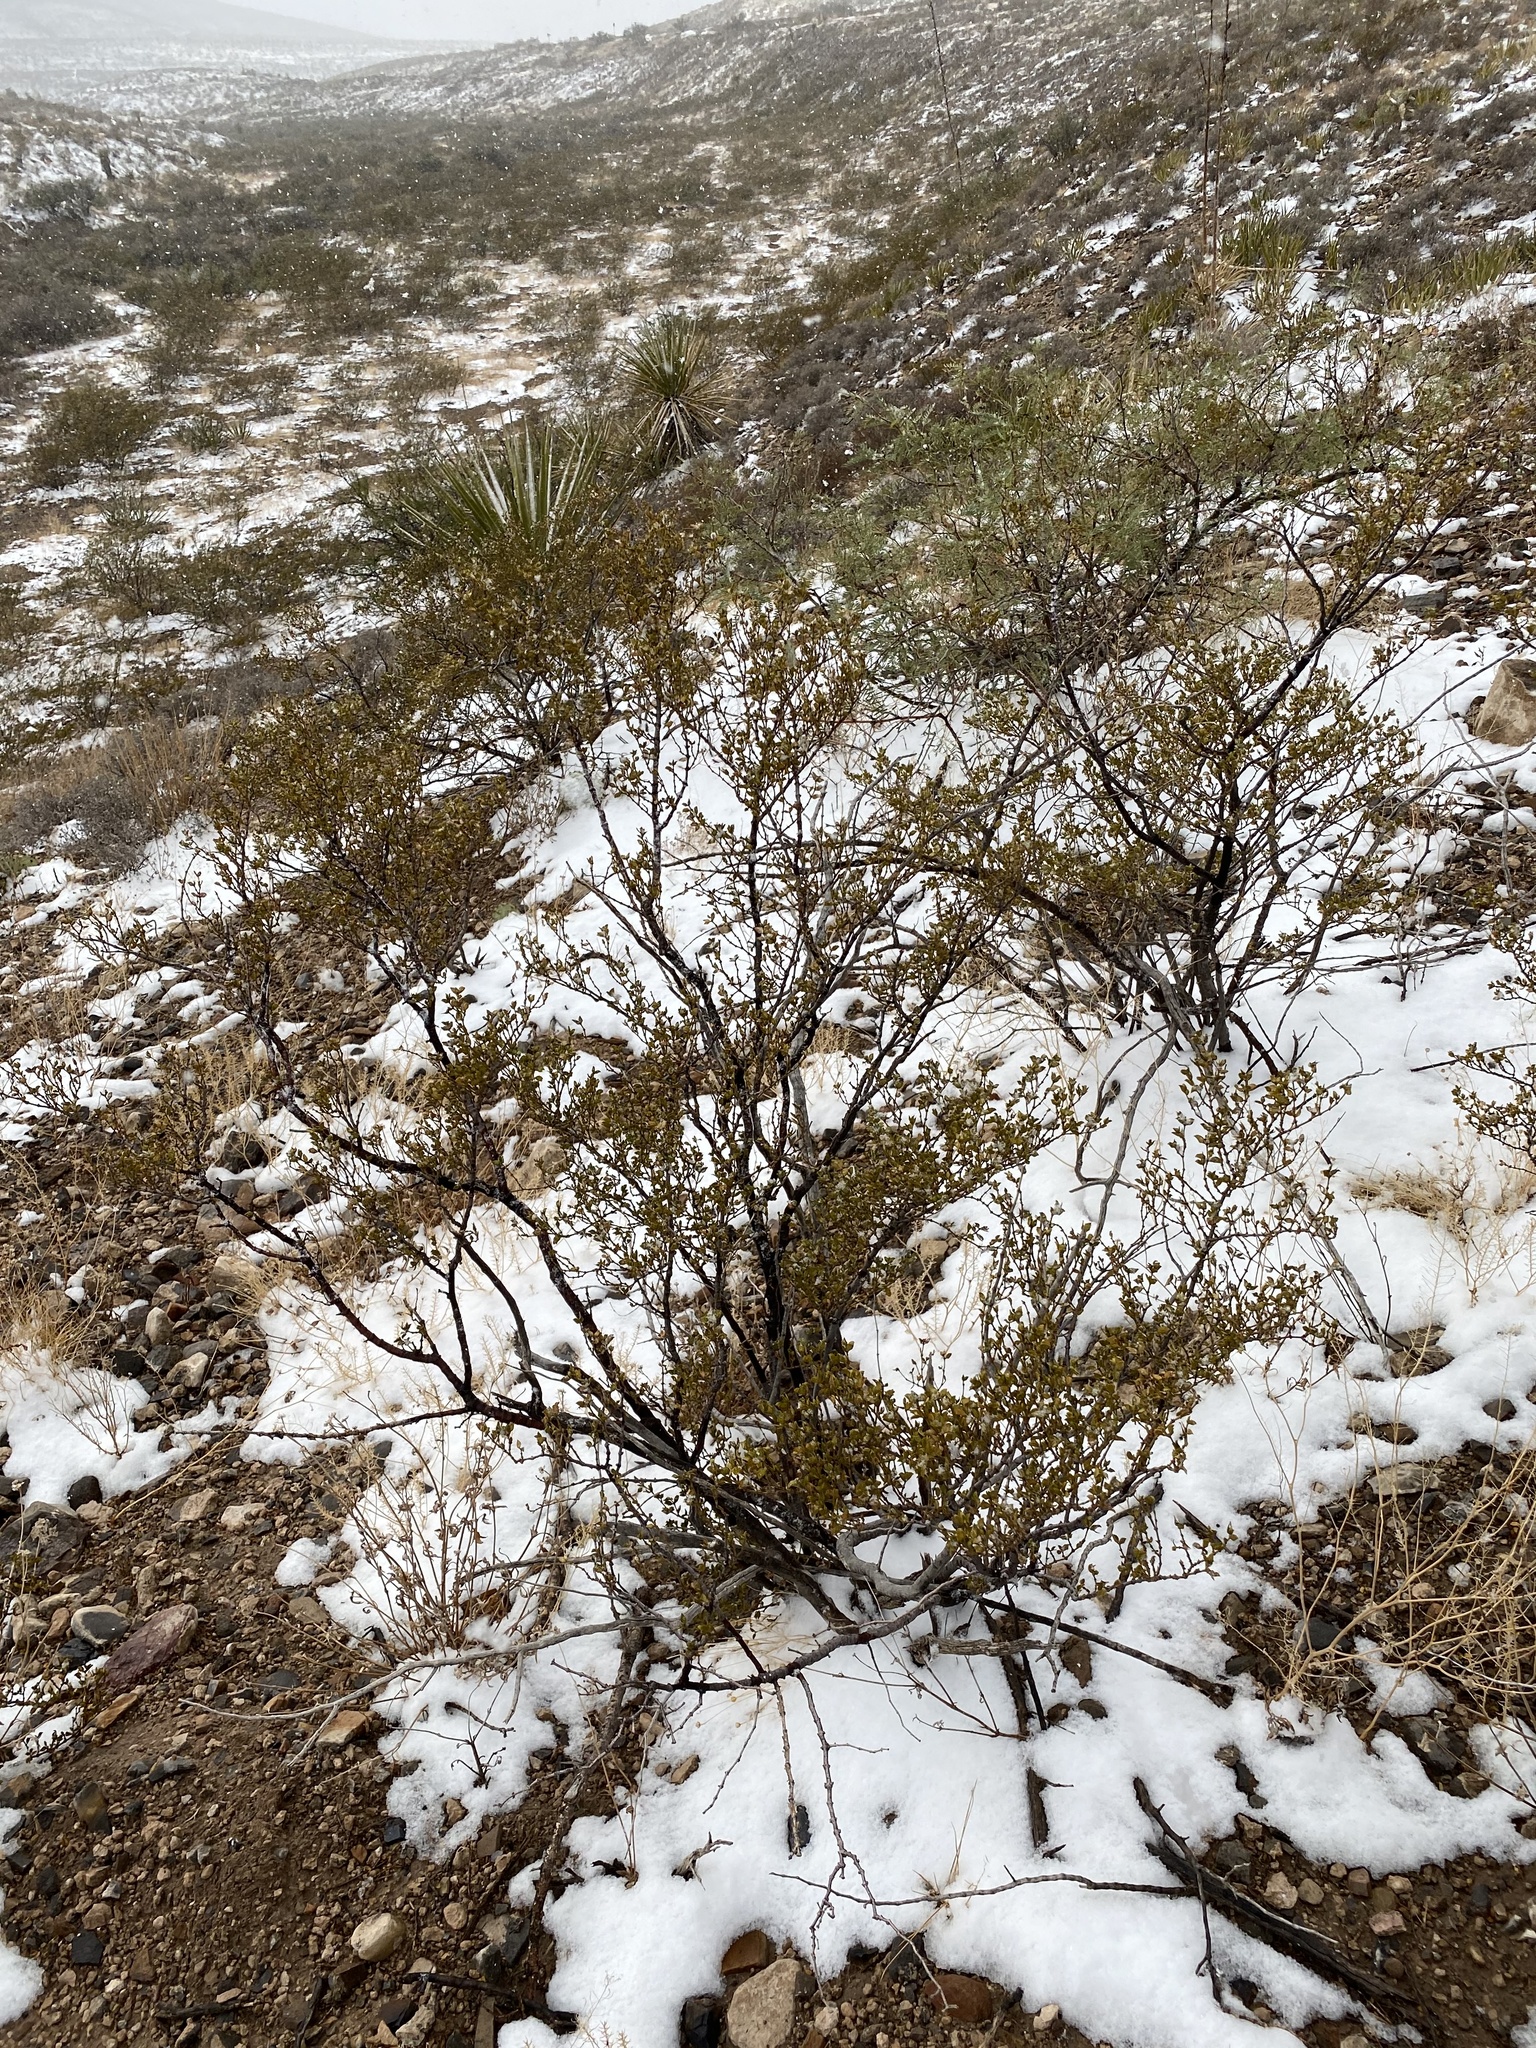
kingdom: Plantae
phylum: Tracheophyta
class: Magnoliopsida
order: Zygophyllales
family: Zygophyllaceae
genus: Larrea
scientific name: Larrea tridentata
